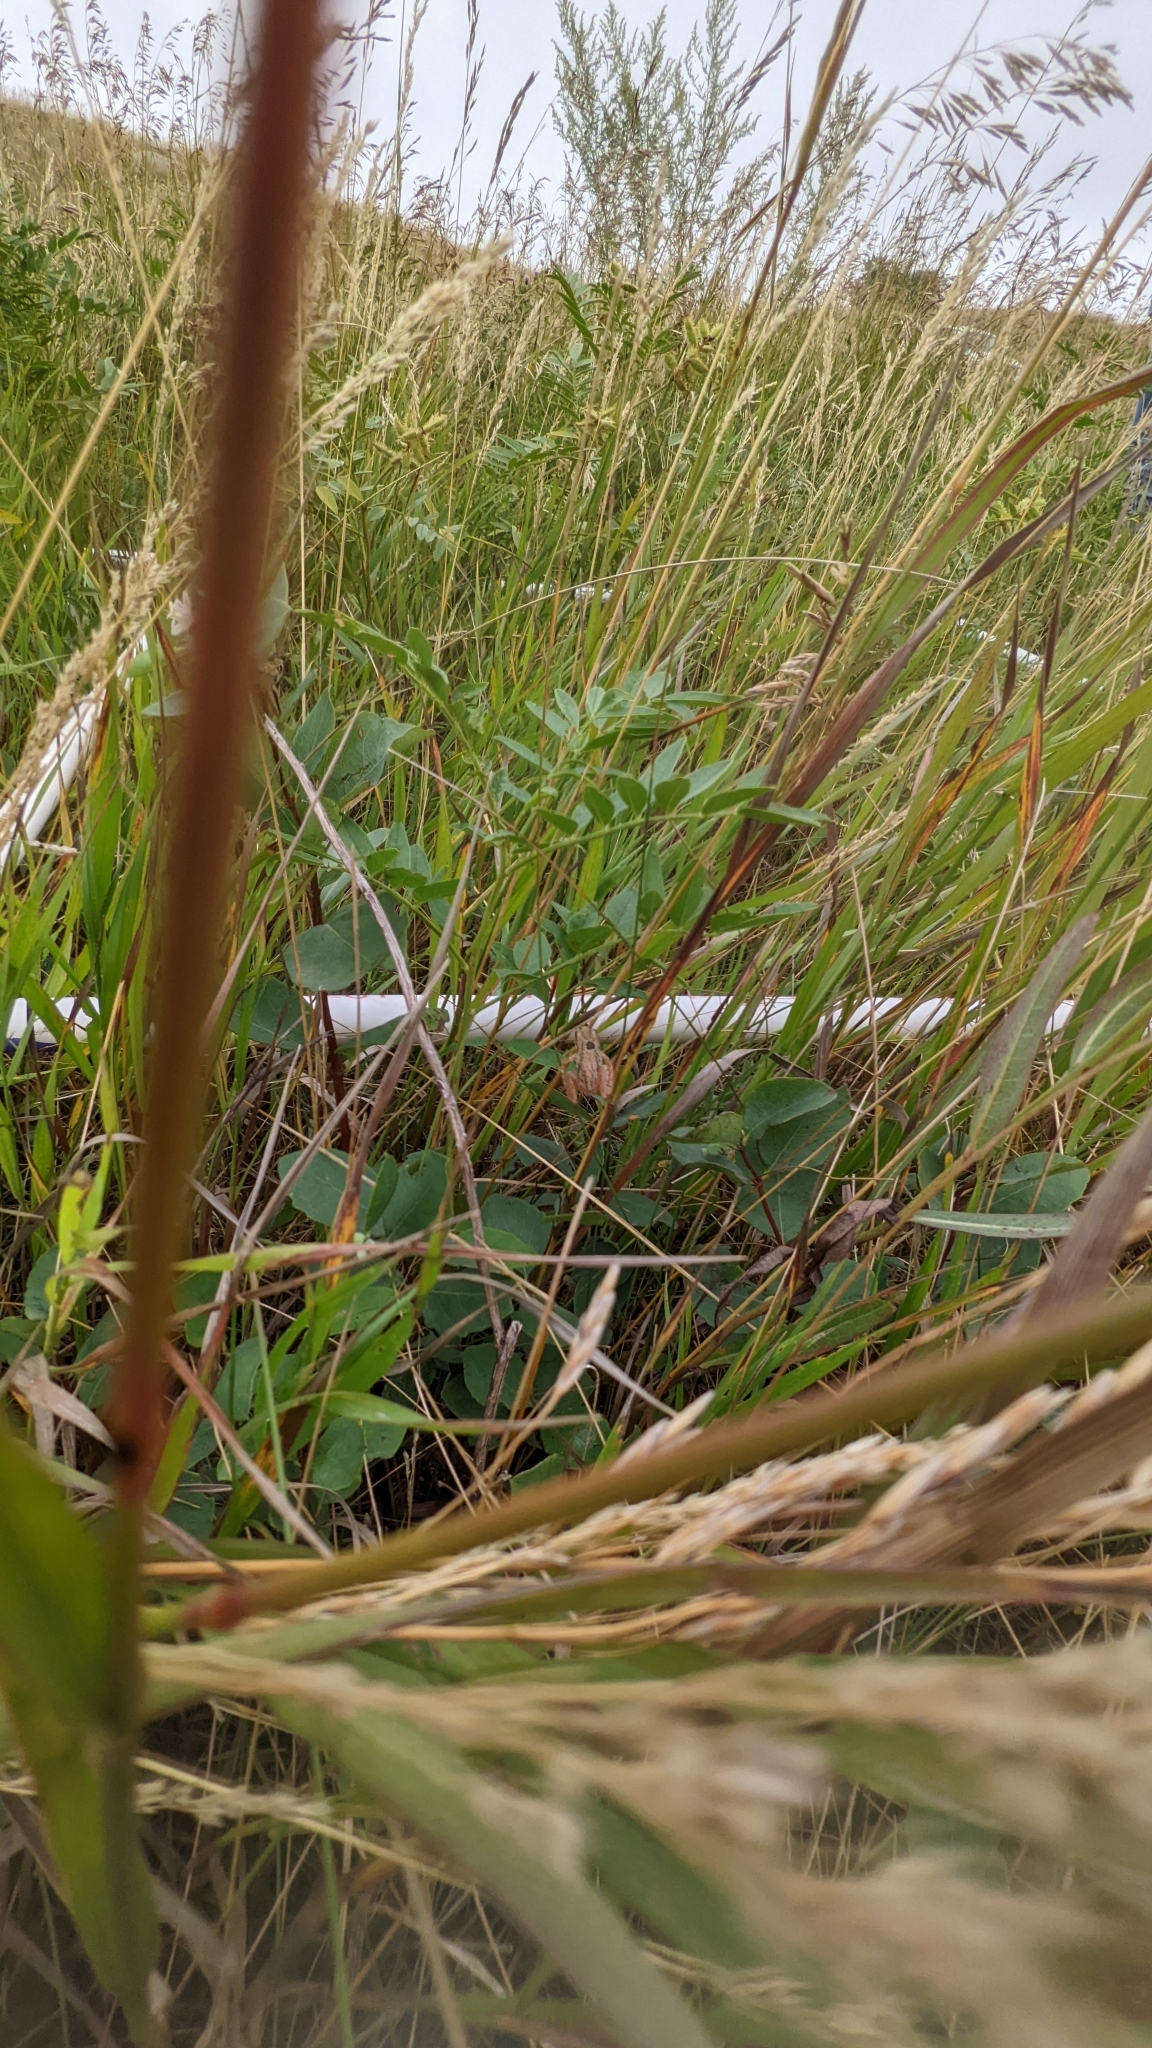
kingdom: Animalia
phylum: Chordata
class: Amphibia
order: Anura
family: Hylidae
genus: Pseudacris
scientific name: Pseudacris maculata
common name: Boreal chorus frog
